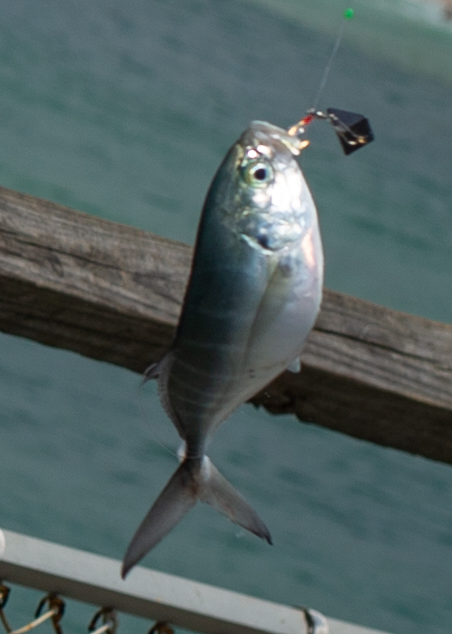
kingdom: Animalia
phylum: Chordata
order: Perciformes
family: Carangidae
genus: Caranx
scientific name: Caranx crysos
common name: Blue runner
